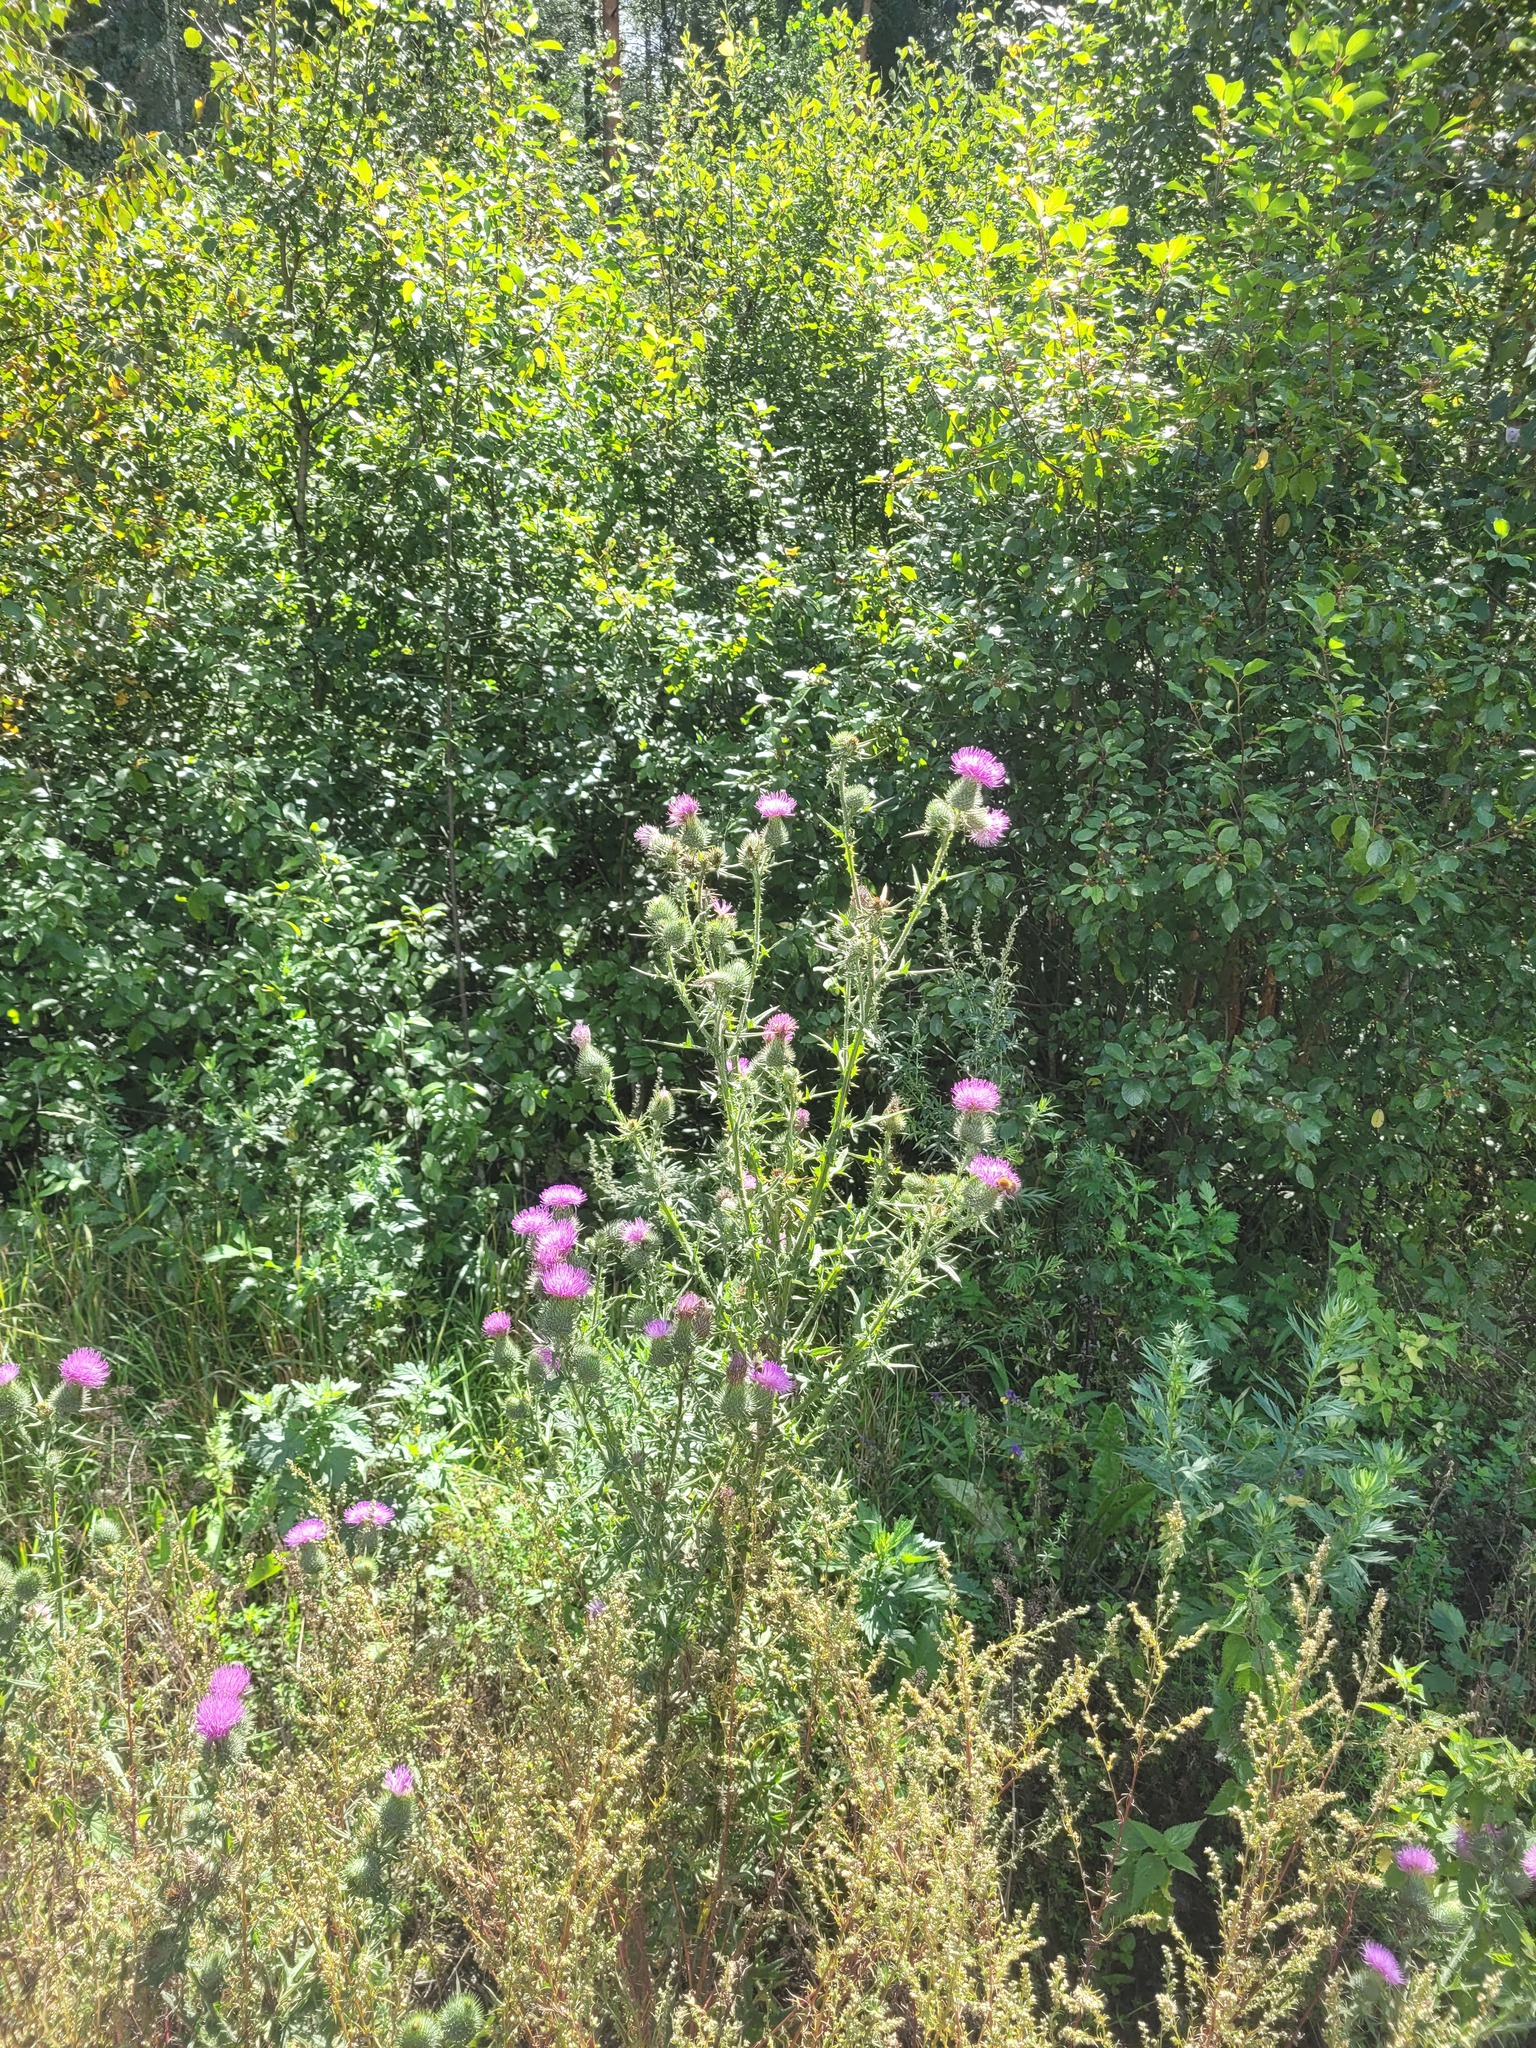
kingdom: Plantae
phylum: Tracheophyta
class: Magnoliopsida
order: Asterales
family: Asteraceae
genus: Cirsium
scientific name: Cirsium vulgare
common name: Bull thistle
